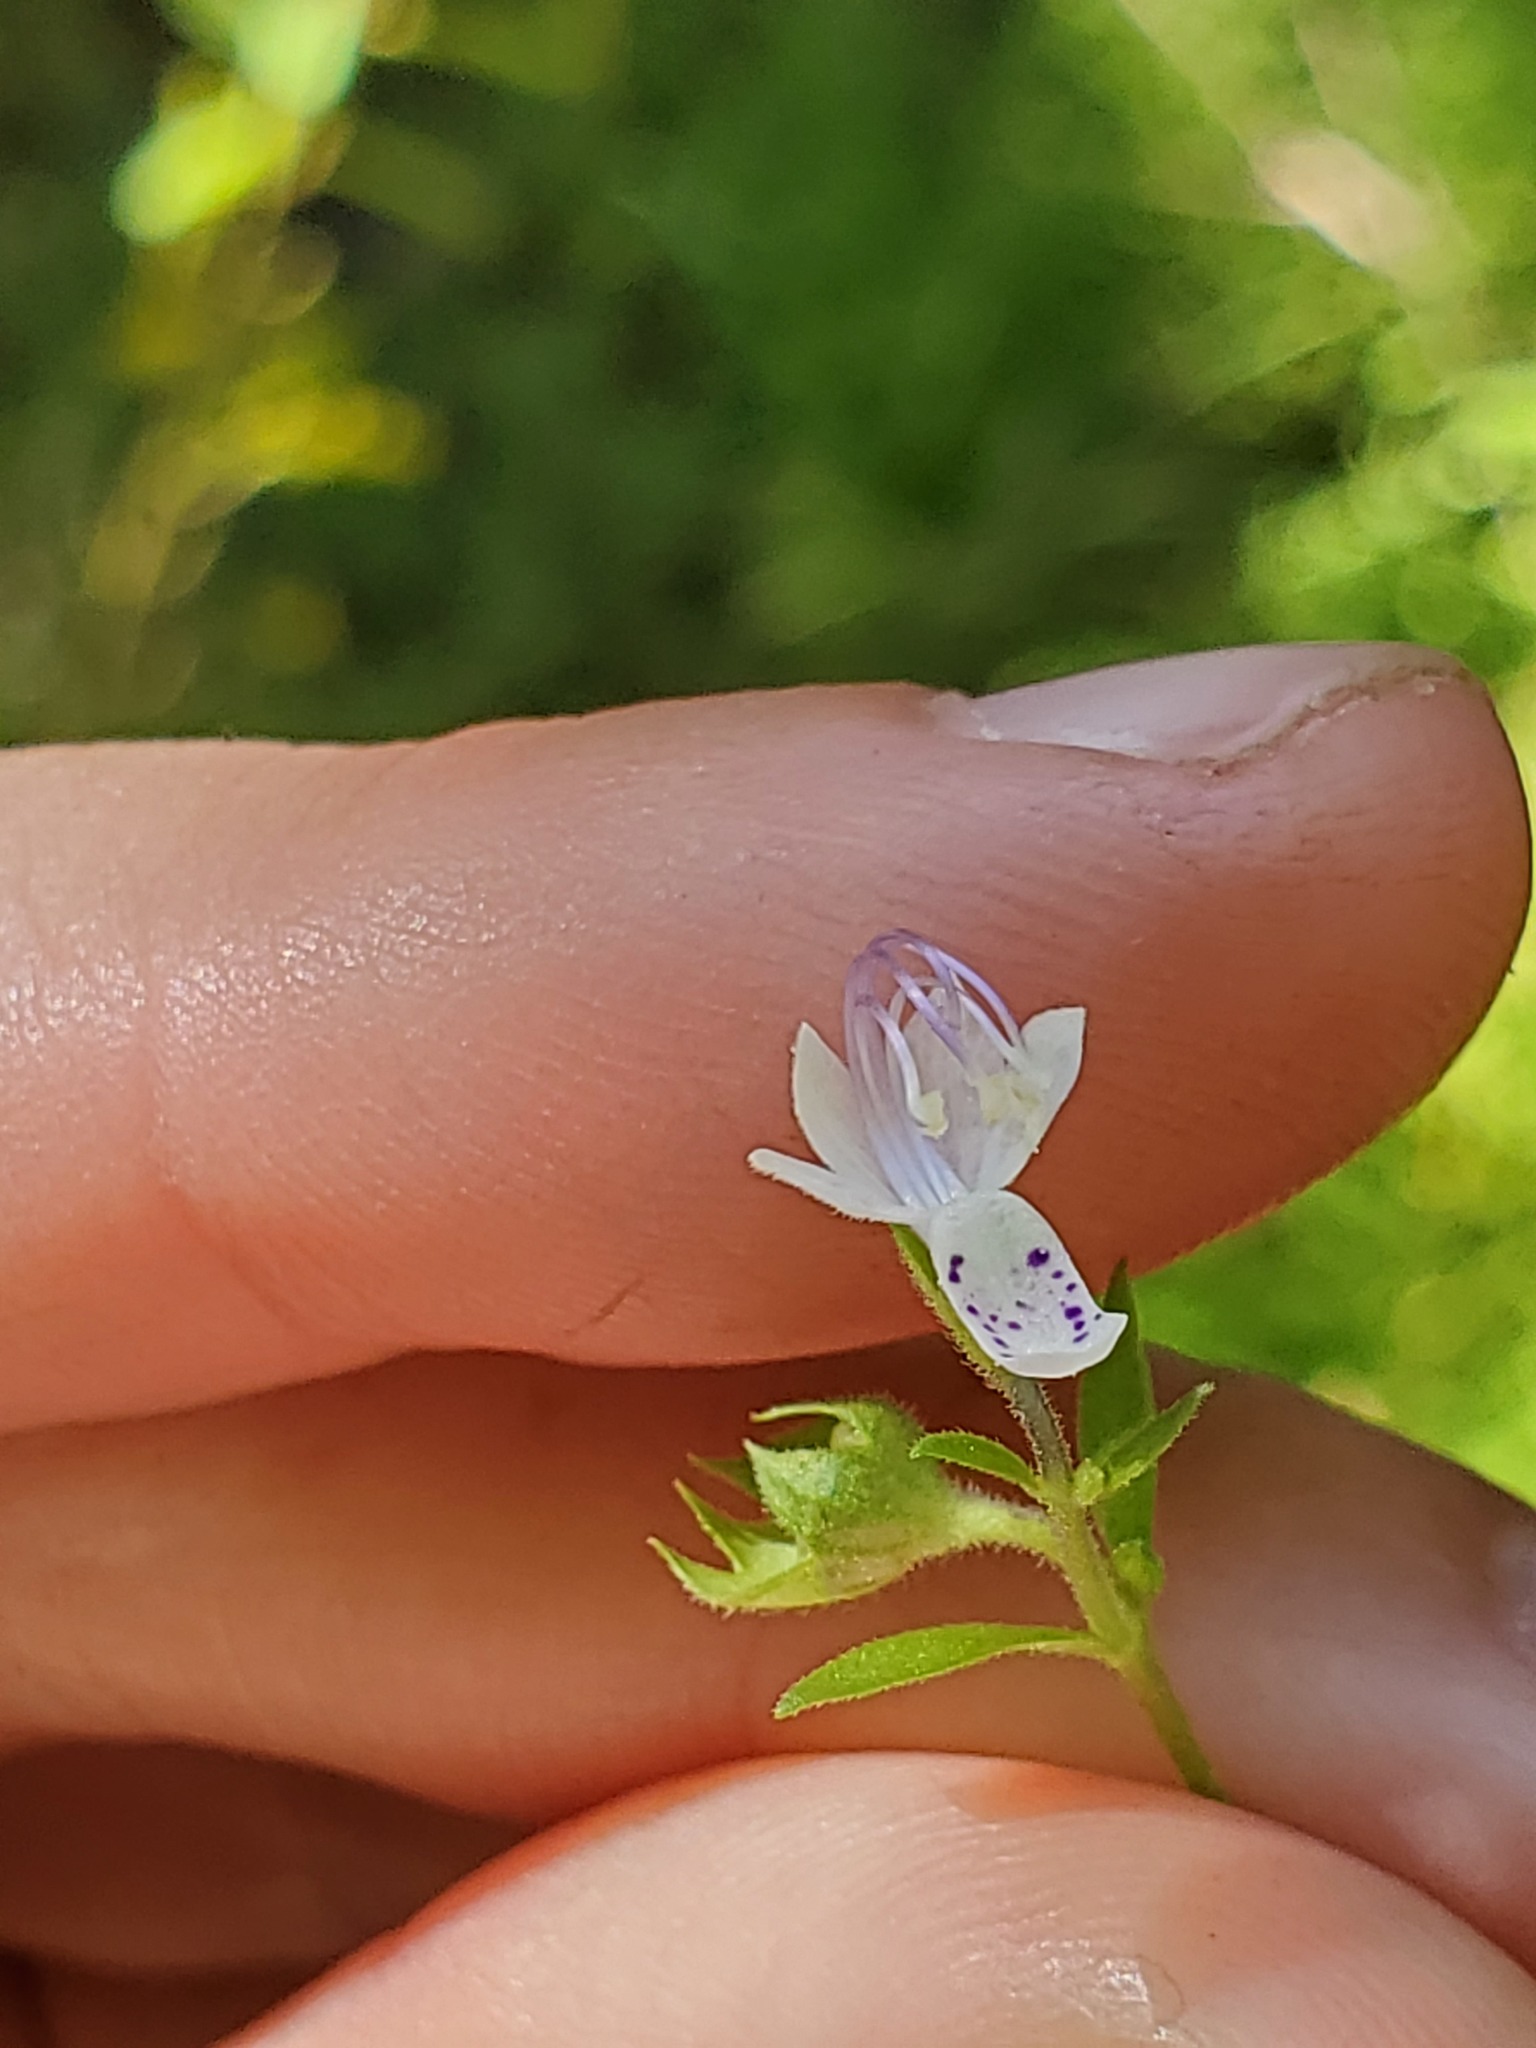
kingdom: Plantae
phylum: Tracheophyta
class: Magnoliopsida
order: Lamiales
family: Lamiaceae
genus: Trichostema
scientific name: Trichostema dichotomum
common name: Bastard pennyroyal
